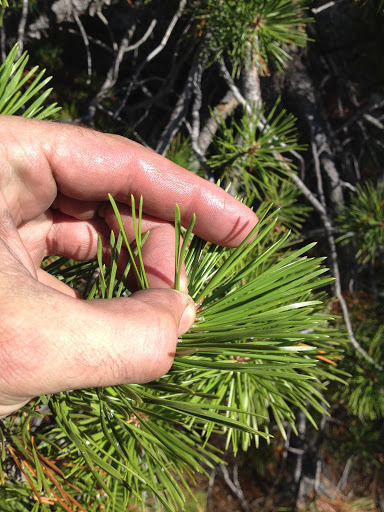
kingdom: Plantae
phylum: Tracheophyta
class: Pinopsida
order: Pinales
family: Pinaceae
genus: Pinus
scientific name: Pinus contorta
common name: Lodgepole pine
